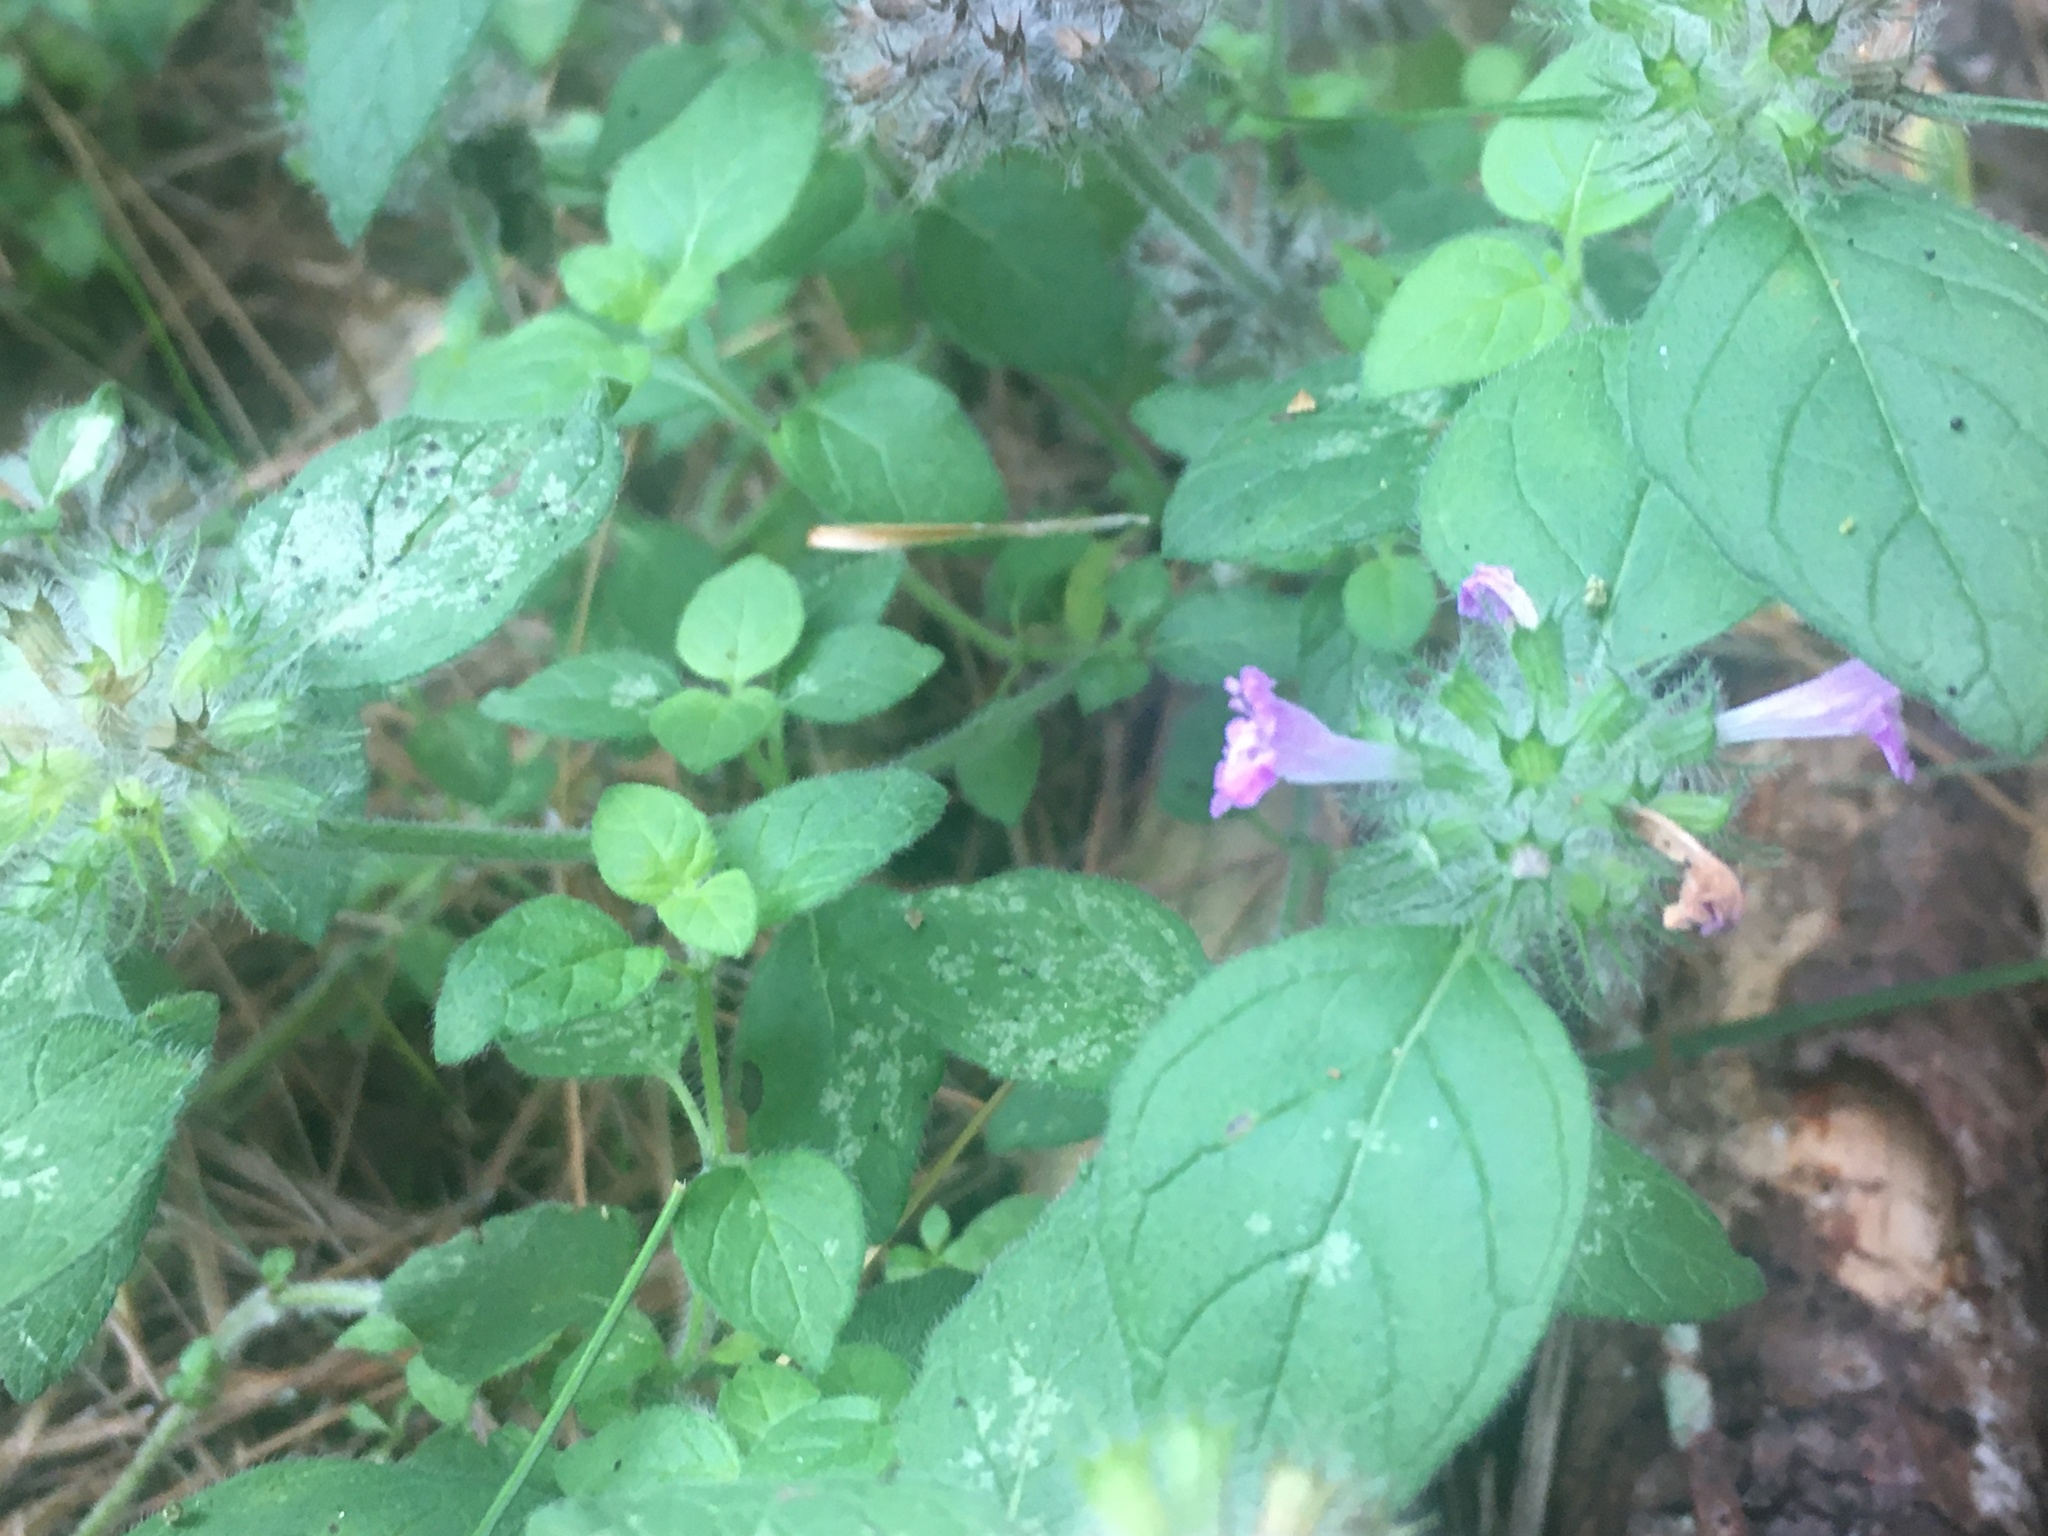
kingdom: Plantae
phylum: Tracheophyta
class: Magnoliopsida
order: Lamiales
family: Lamiaceae
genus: Clinopodium
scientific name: Clinopodium vulgare
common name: Wild basil
